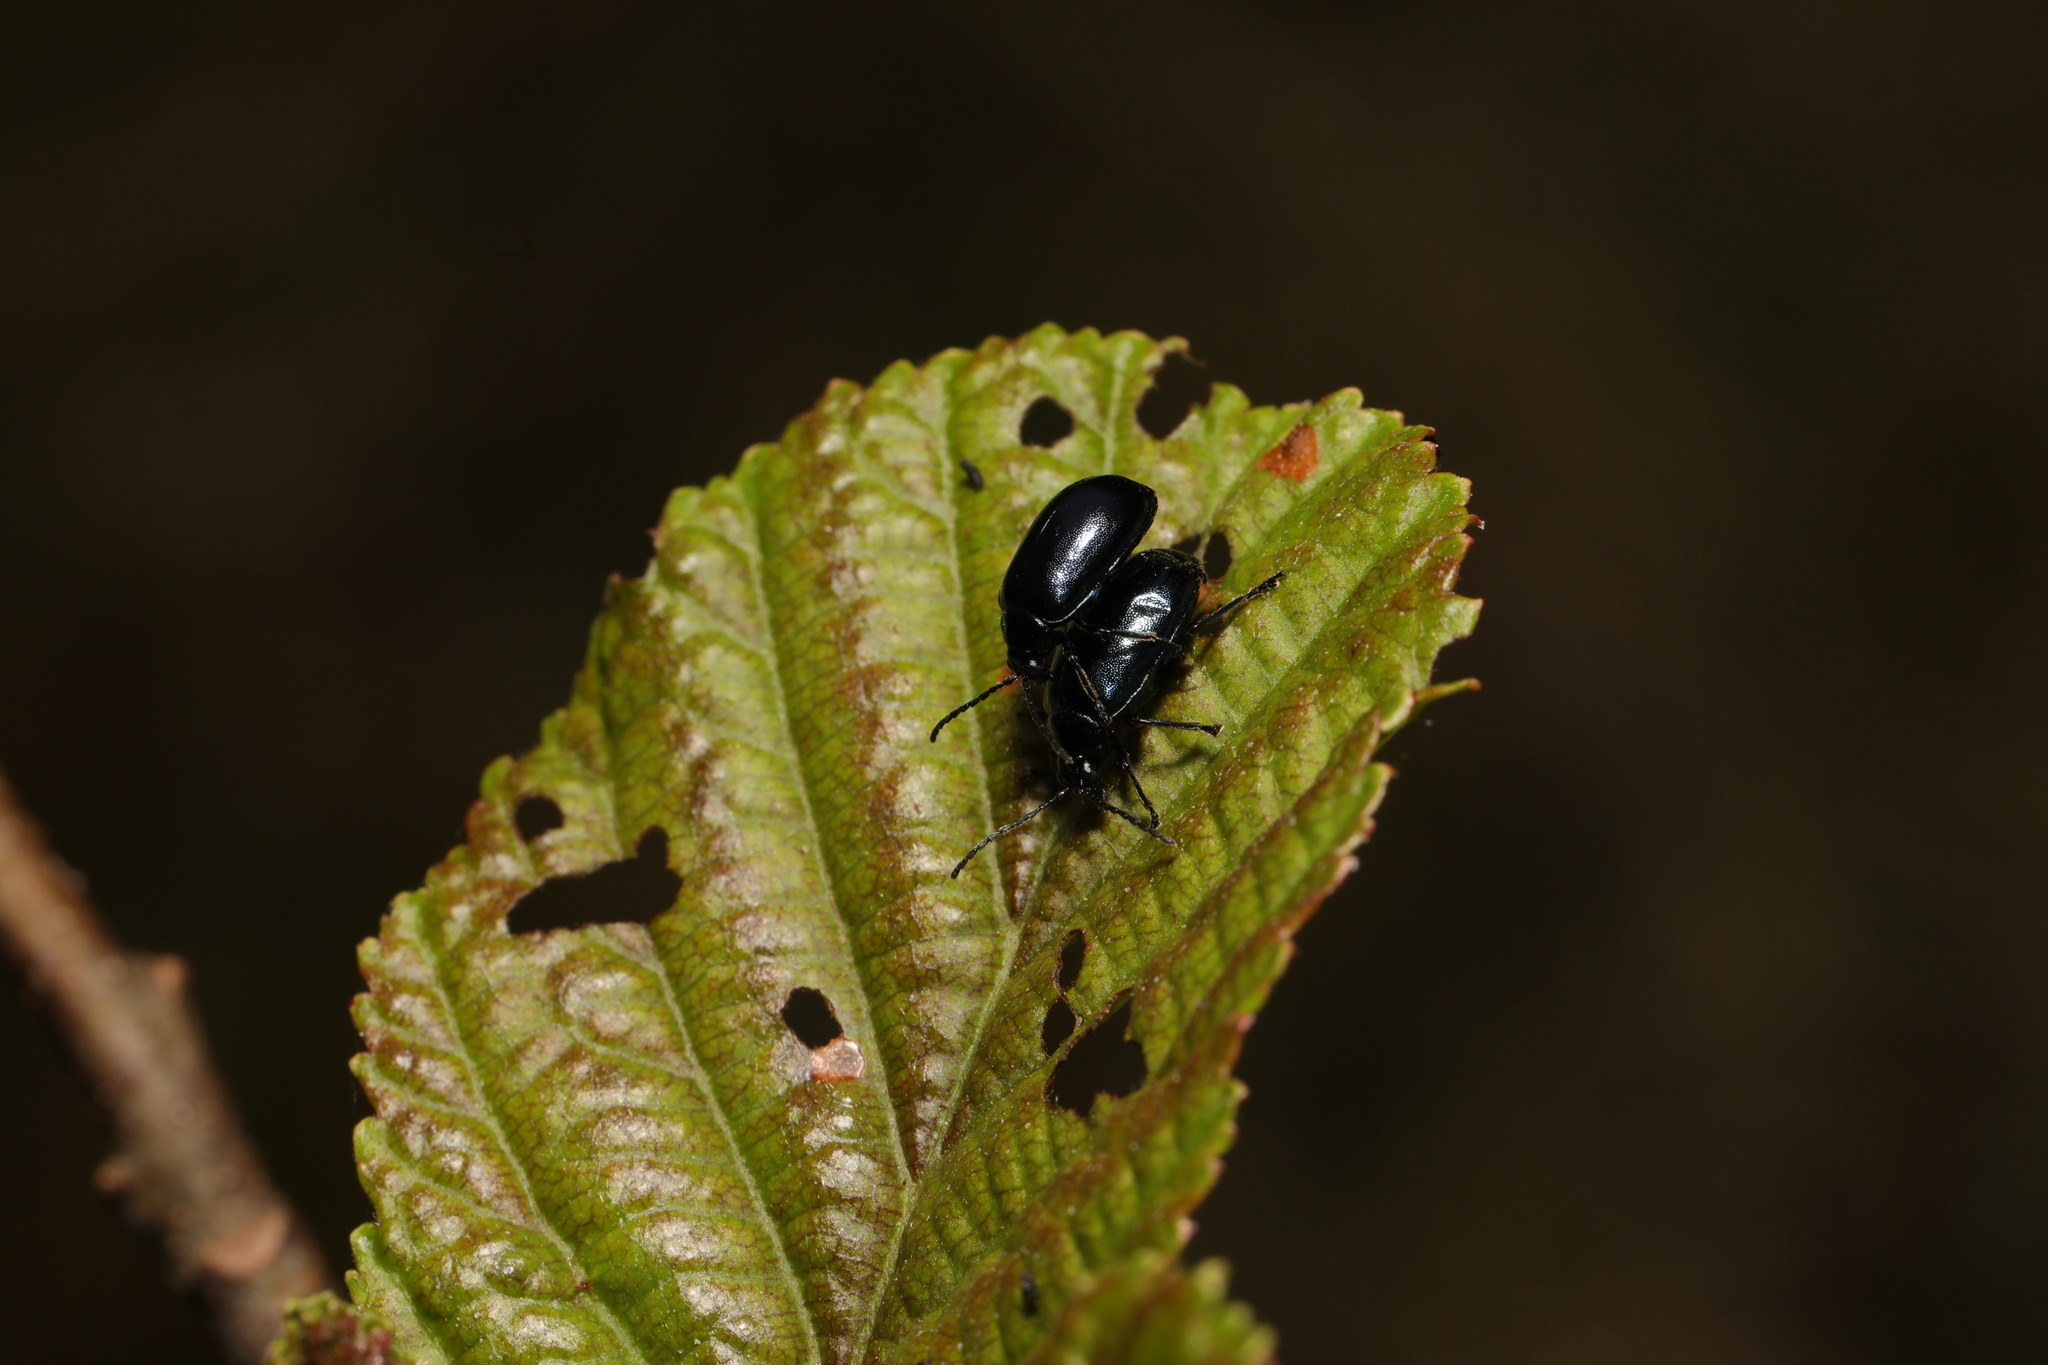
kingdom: Animalia
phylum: Arthropoda
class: Insecta
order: Coleoptera
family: Chrysomelidae
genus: Agelastica
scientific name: Agelastica alni
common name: Alder leaf beetle
